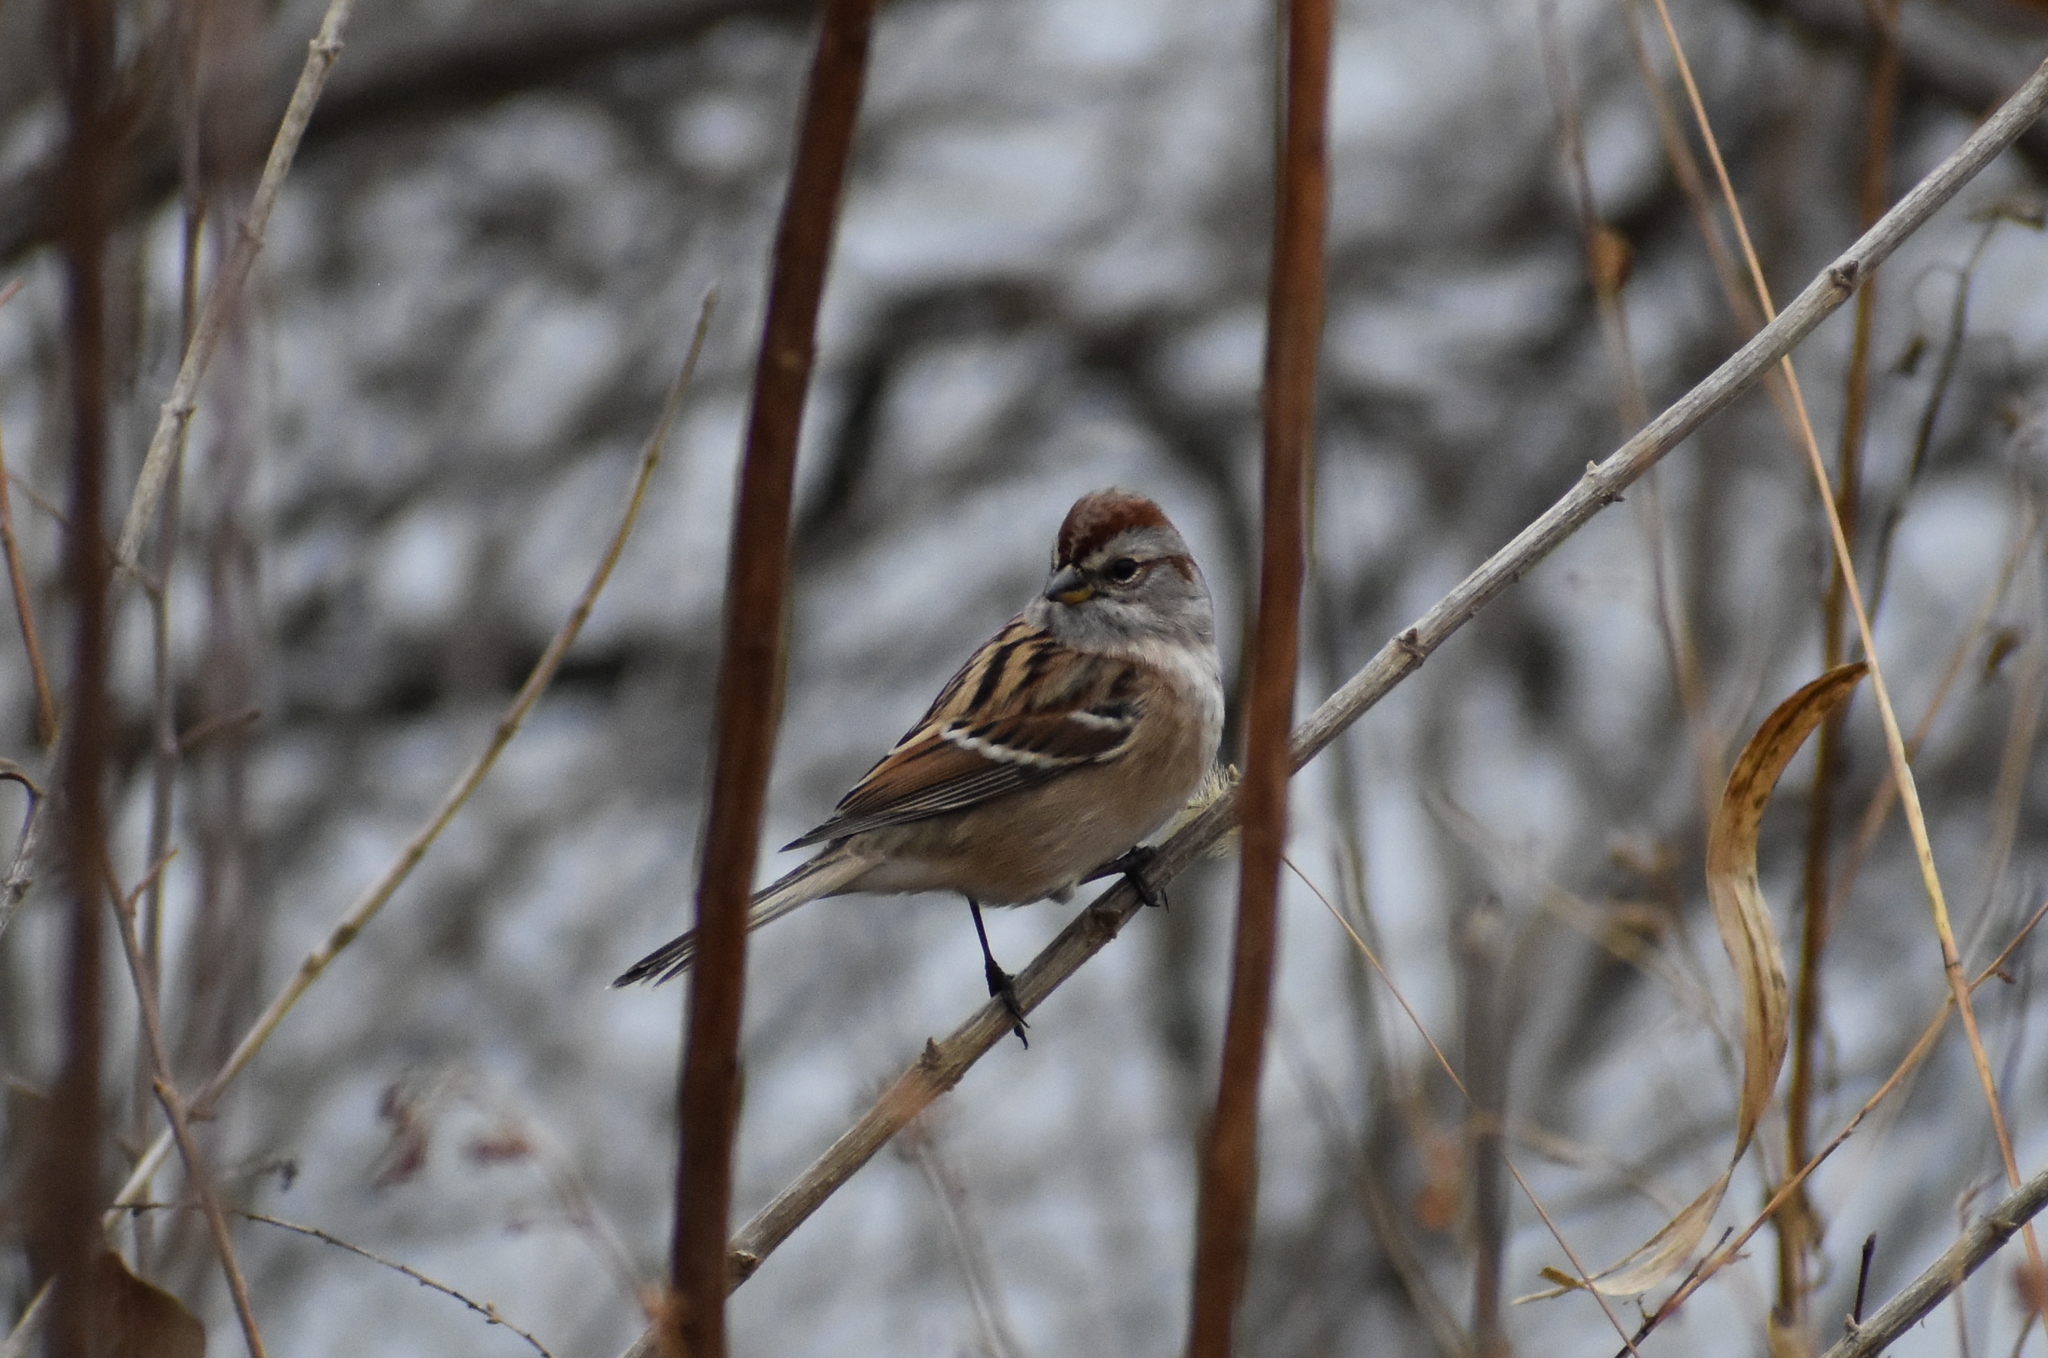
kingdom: Animalia
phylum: Chordata
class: Aves
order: Passeriformes
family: Passerellidae
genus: Spizelloides
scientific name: Spizelloides arborea
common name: American tree sparrow
